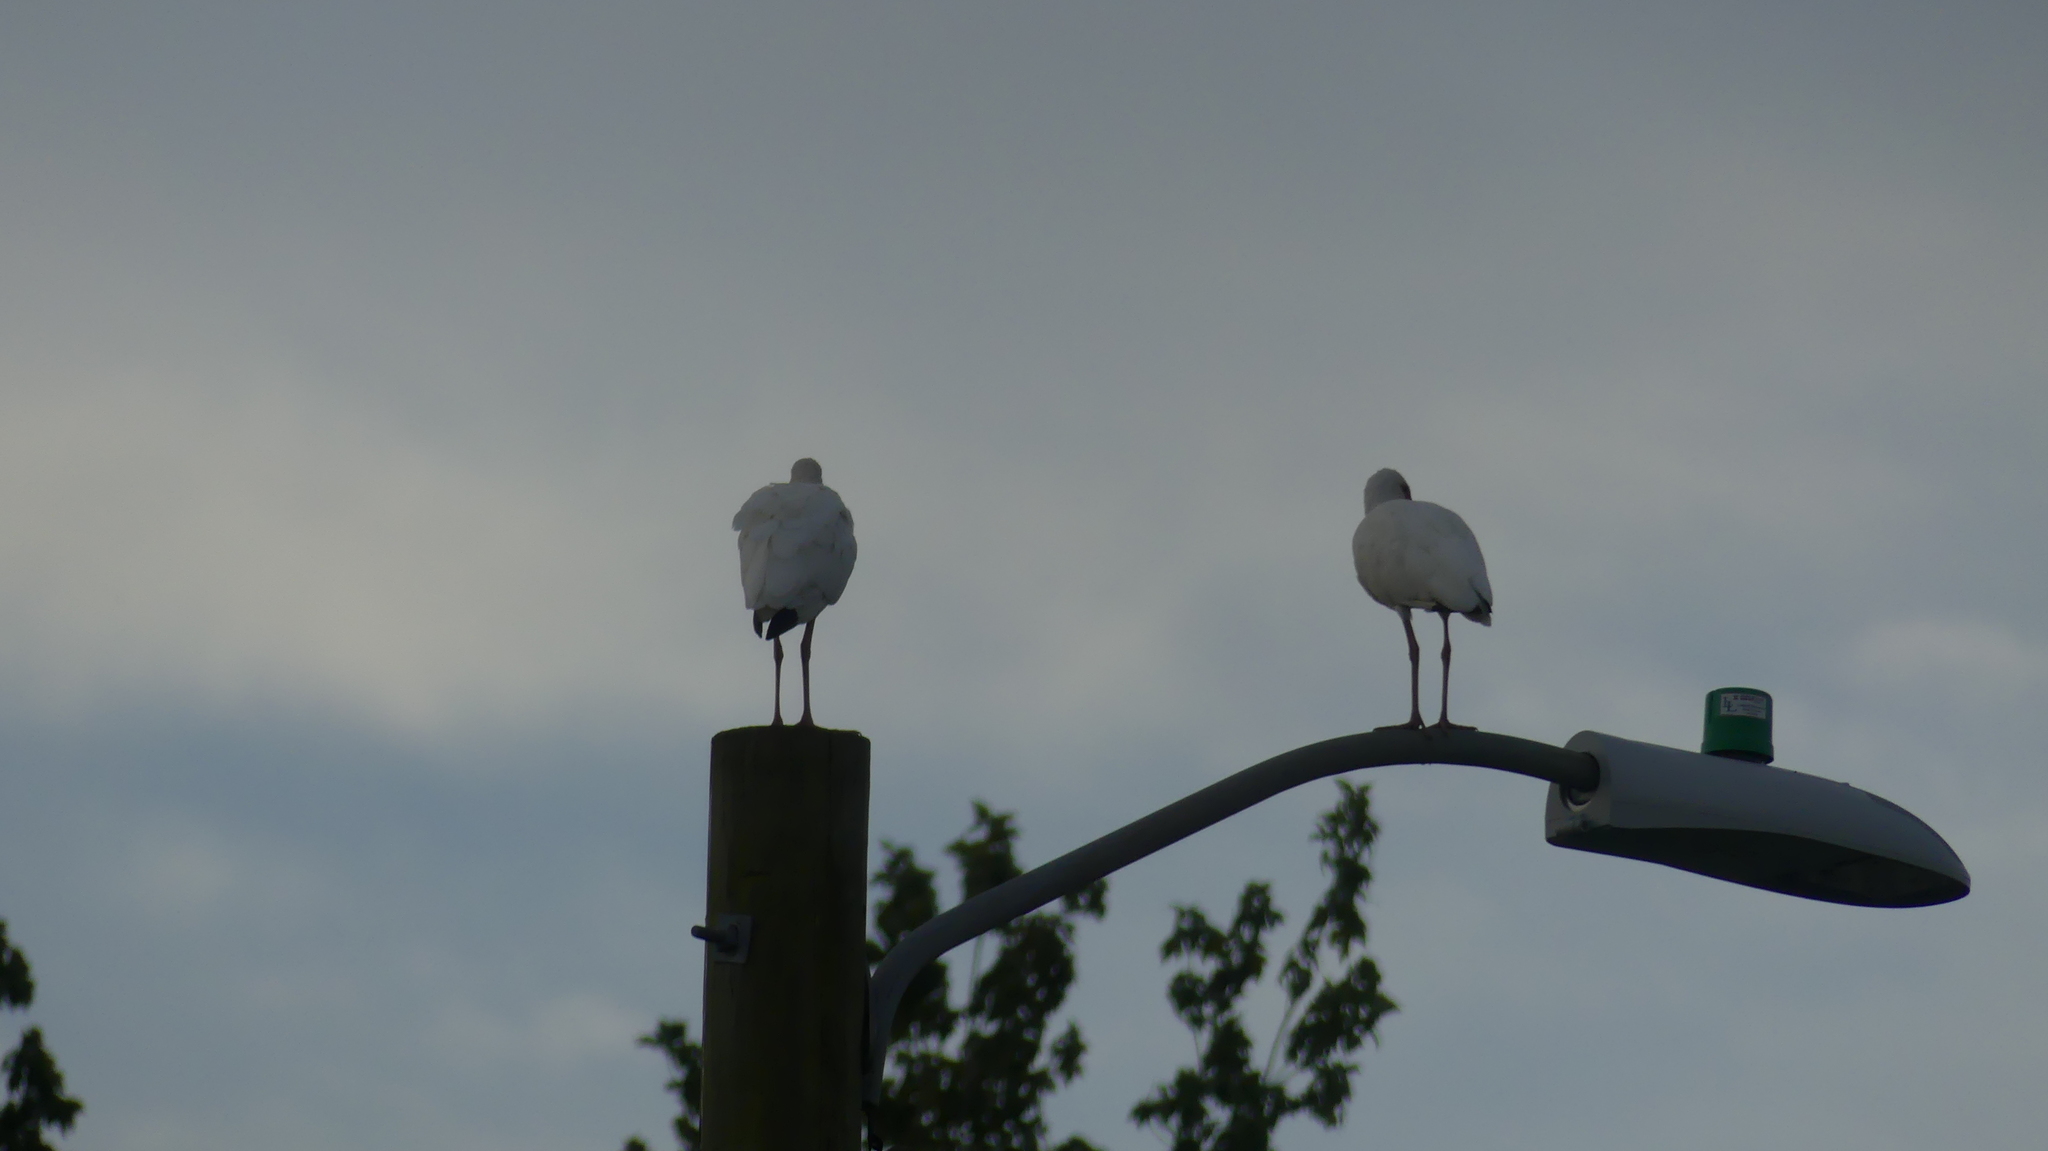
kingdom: Animalia
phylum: Chordata
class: Aves
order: Pelecaniformes
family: Threskiornithidae
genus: Eudocimus
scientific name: Eudocimus albus
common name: White ibis
